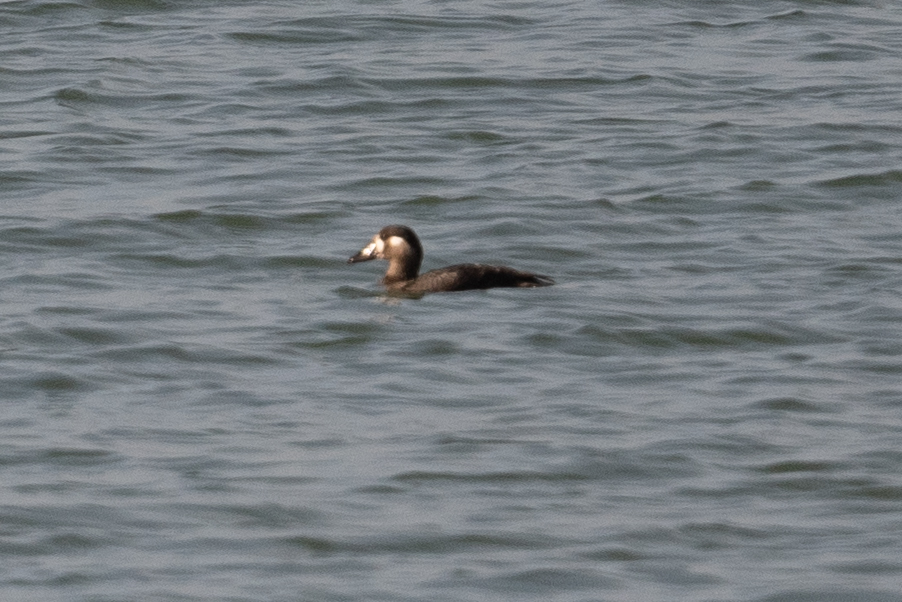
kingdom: Animalia
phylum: Chordata
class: Aves
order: Anseriformes
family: Anatidae
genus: Melanitta
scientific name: Melanitta perspicillata
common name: Surf scoter
